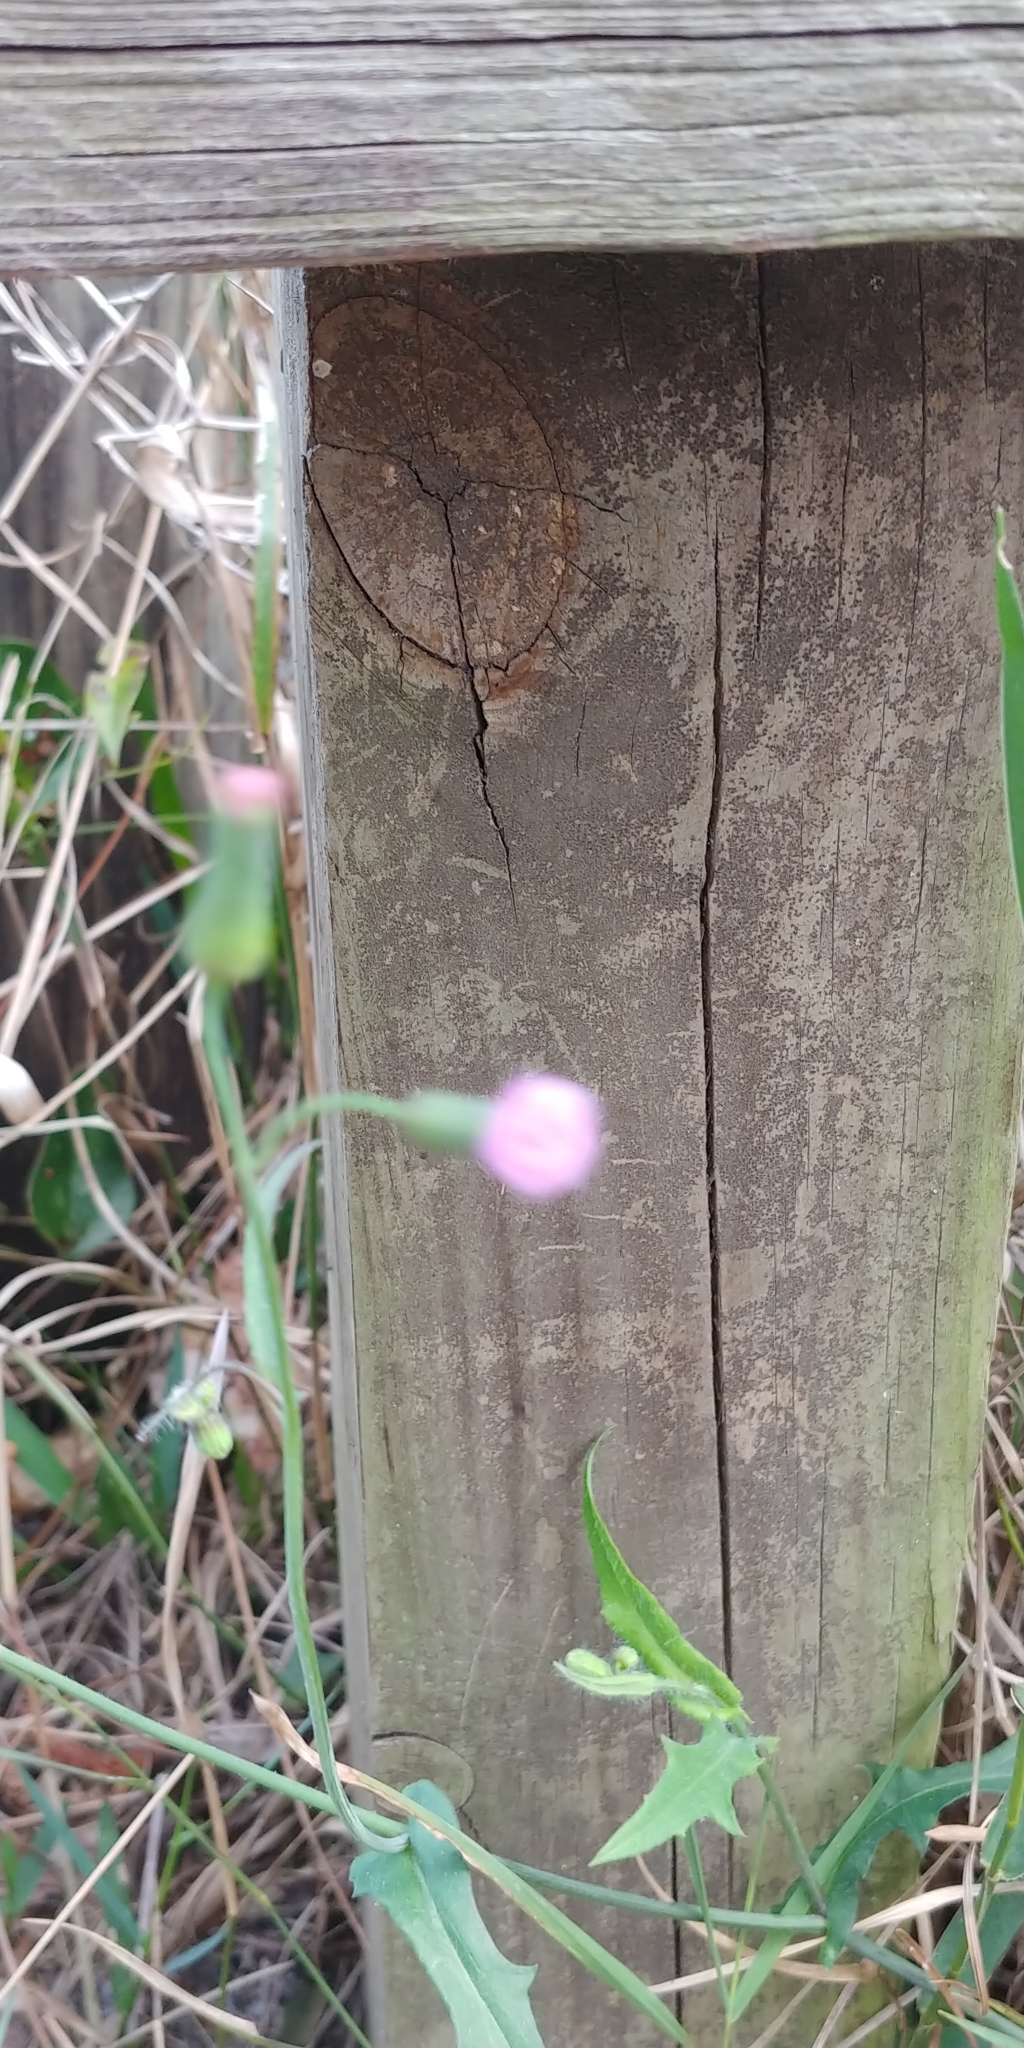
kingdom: Plantae
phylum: Tracheophyta
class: Magnoliopsida
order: Asterales
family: Asteraceae
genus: Emilia
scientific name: Emilia sonchifolia
